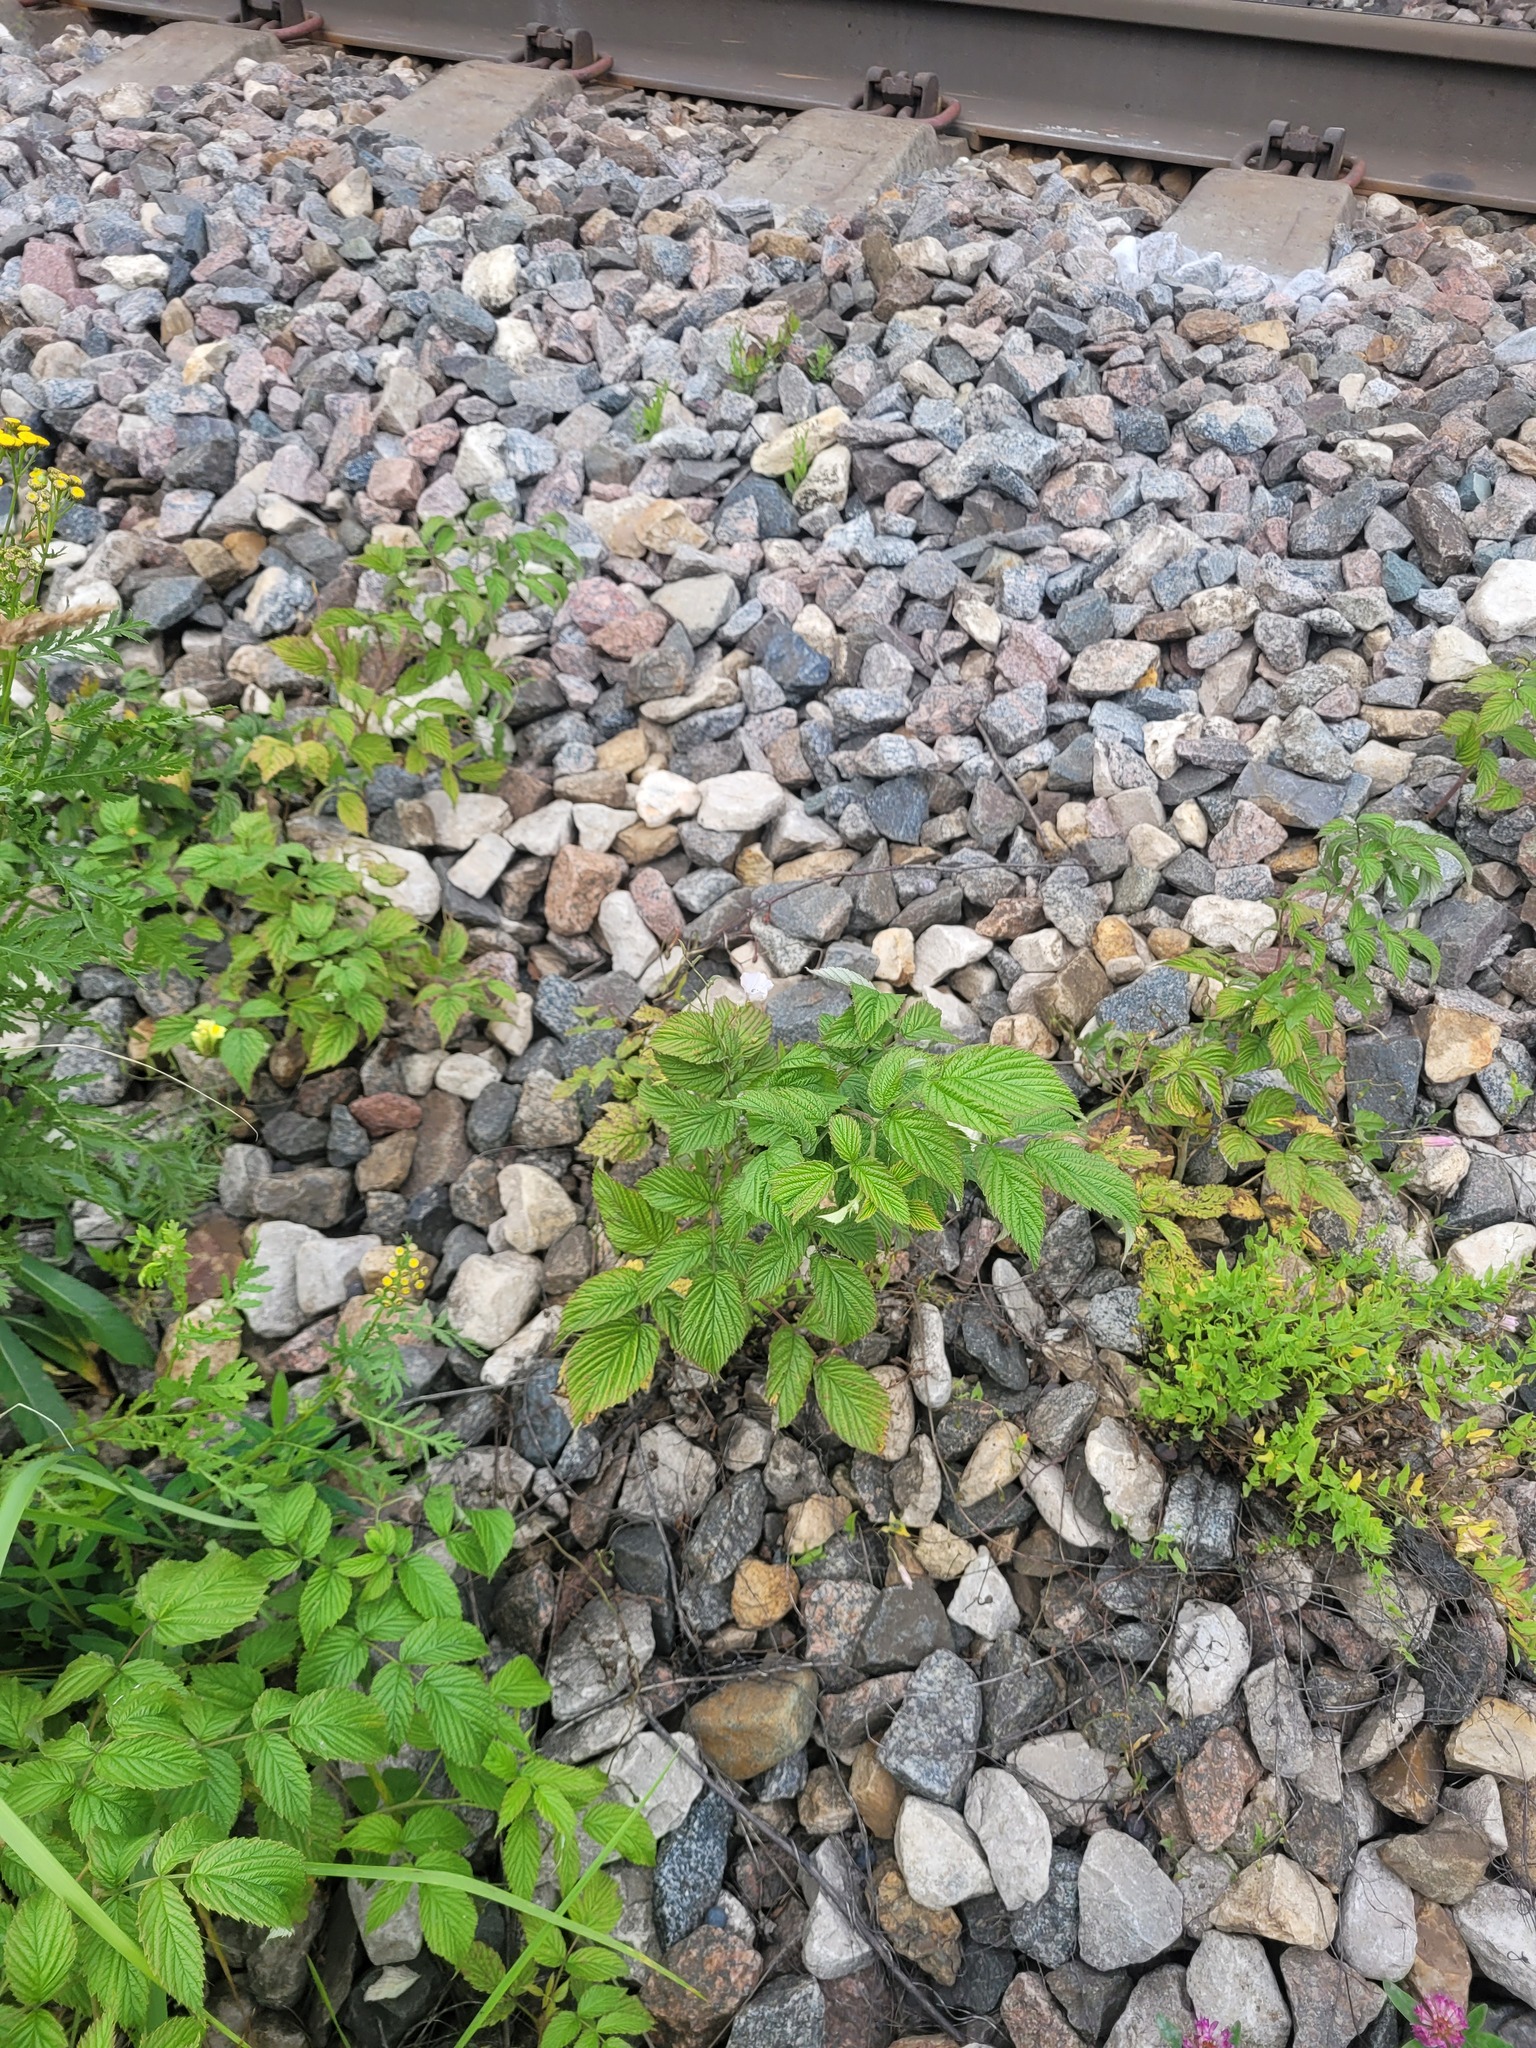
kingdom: Plantae
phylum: Tracheophyta
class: Magnoliopsida
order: Rosales
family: Rosaceae
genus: Rubus
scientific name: Rubus idaeus
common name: Raspberry
